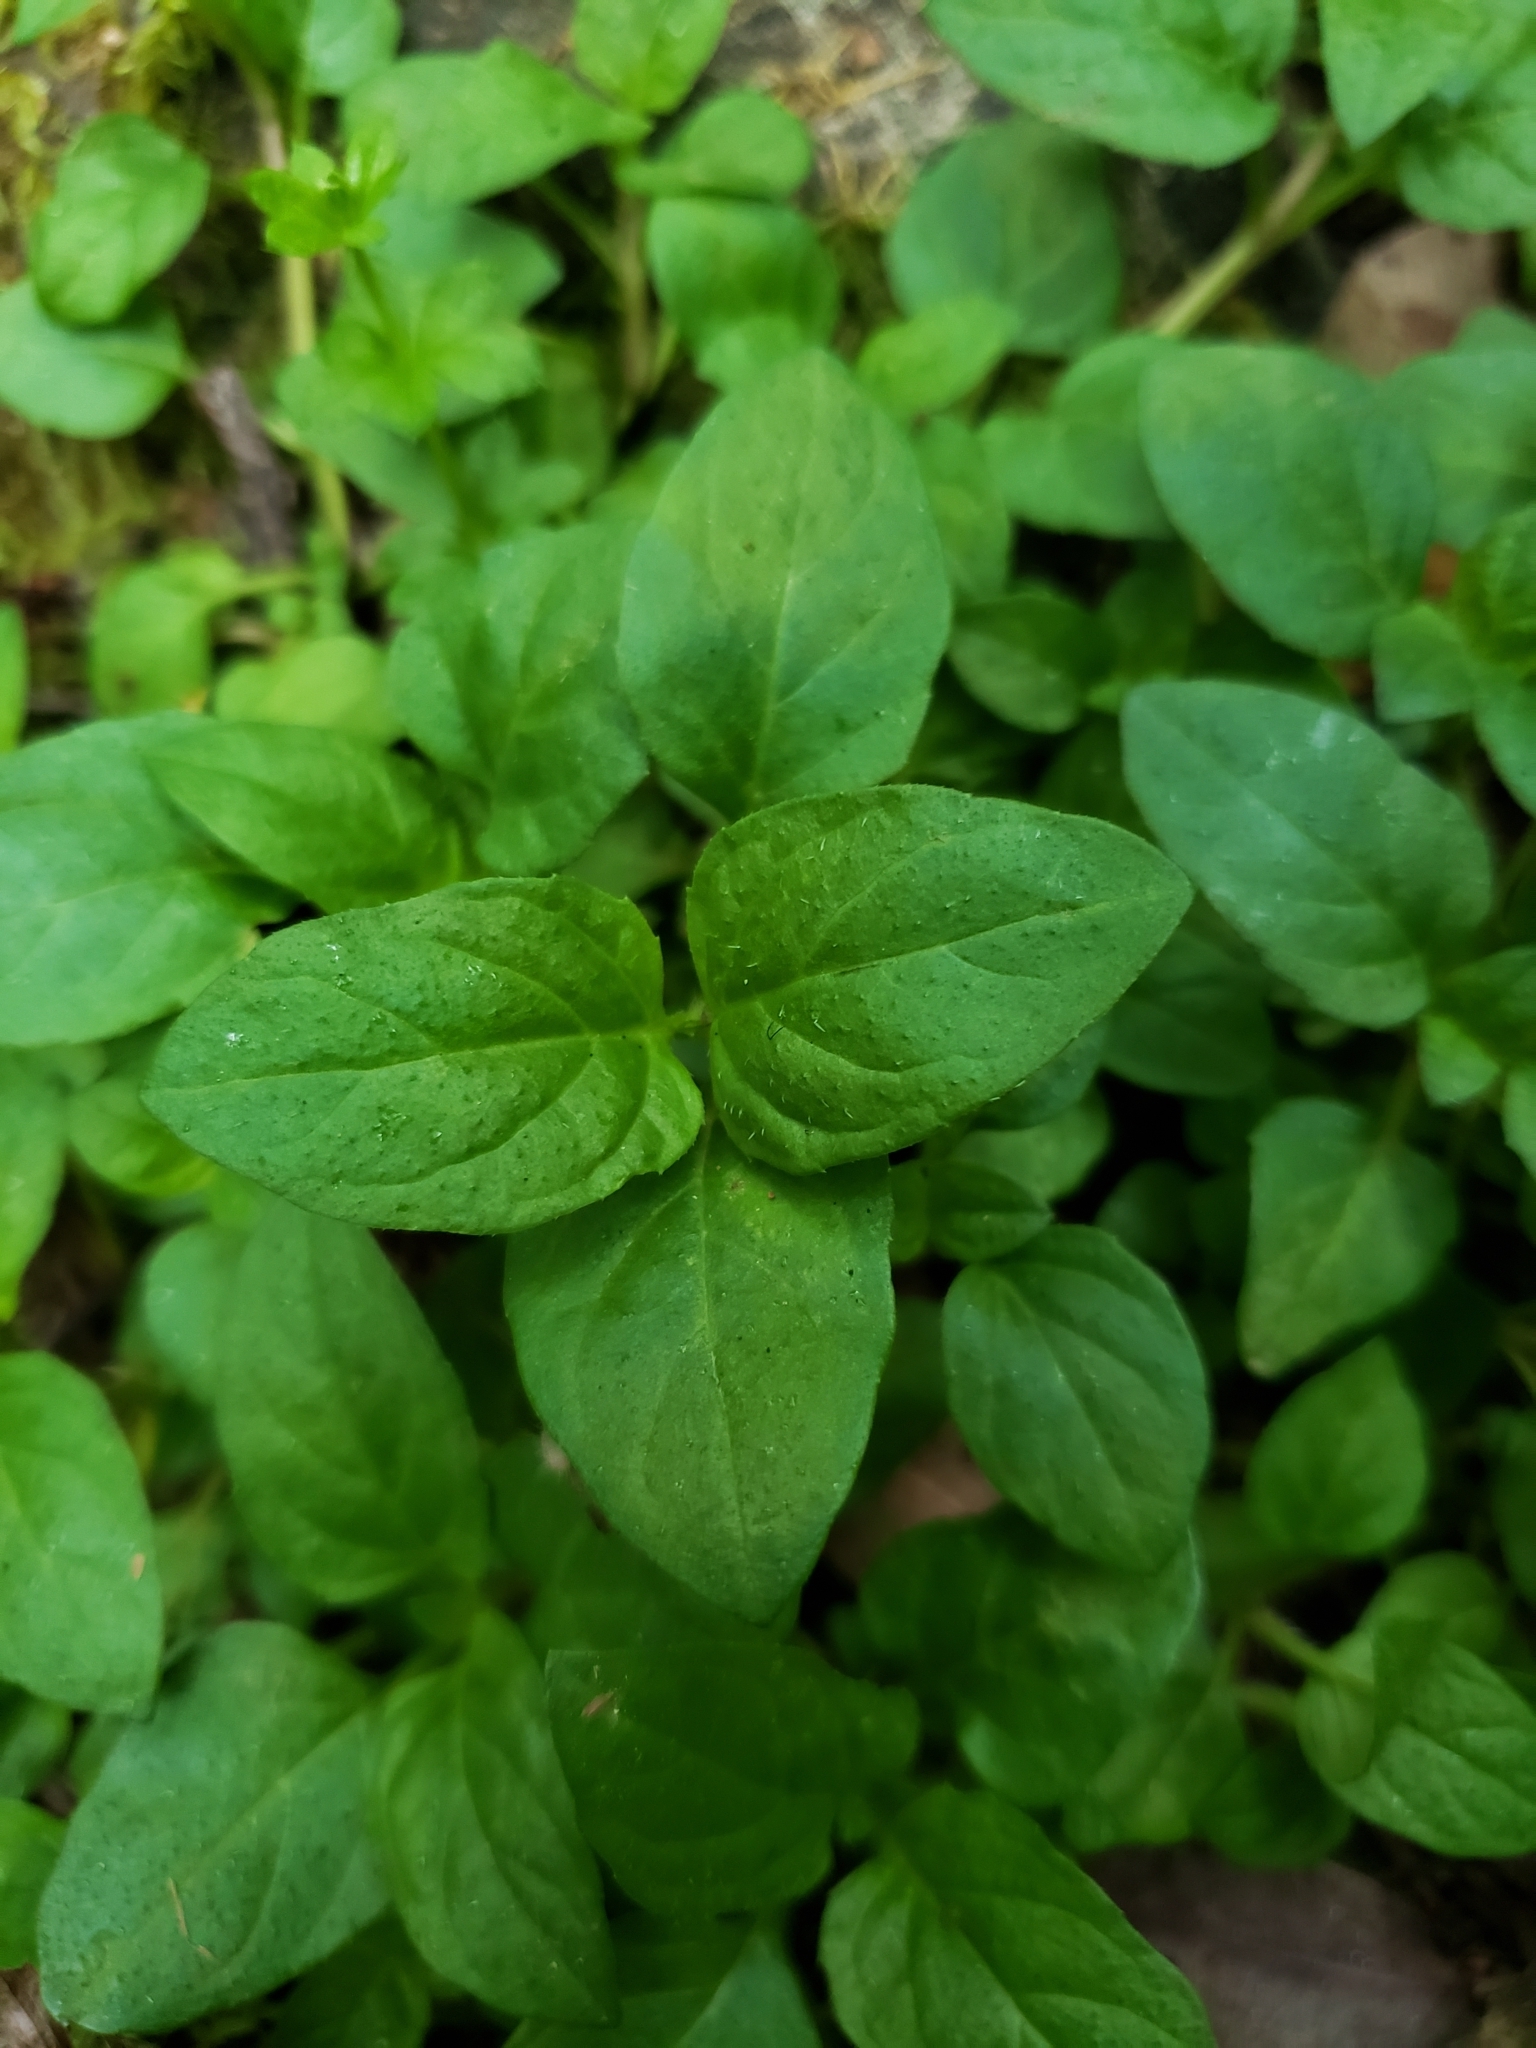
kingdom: Plantae
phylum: Tracheophyta
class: Magnoliopsida
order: Lamiales
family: Lamiaceae
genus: Prunella
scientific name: Prunella vulgaris
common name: Heal-all
